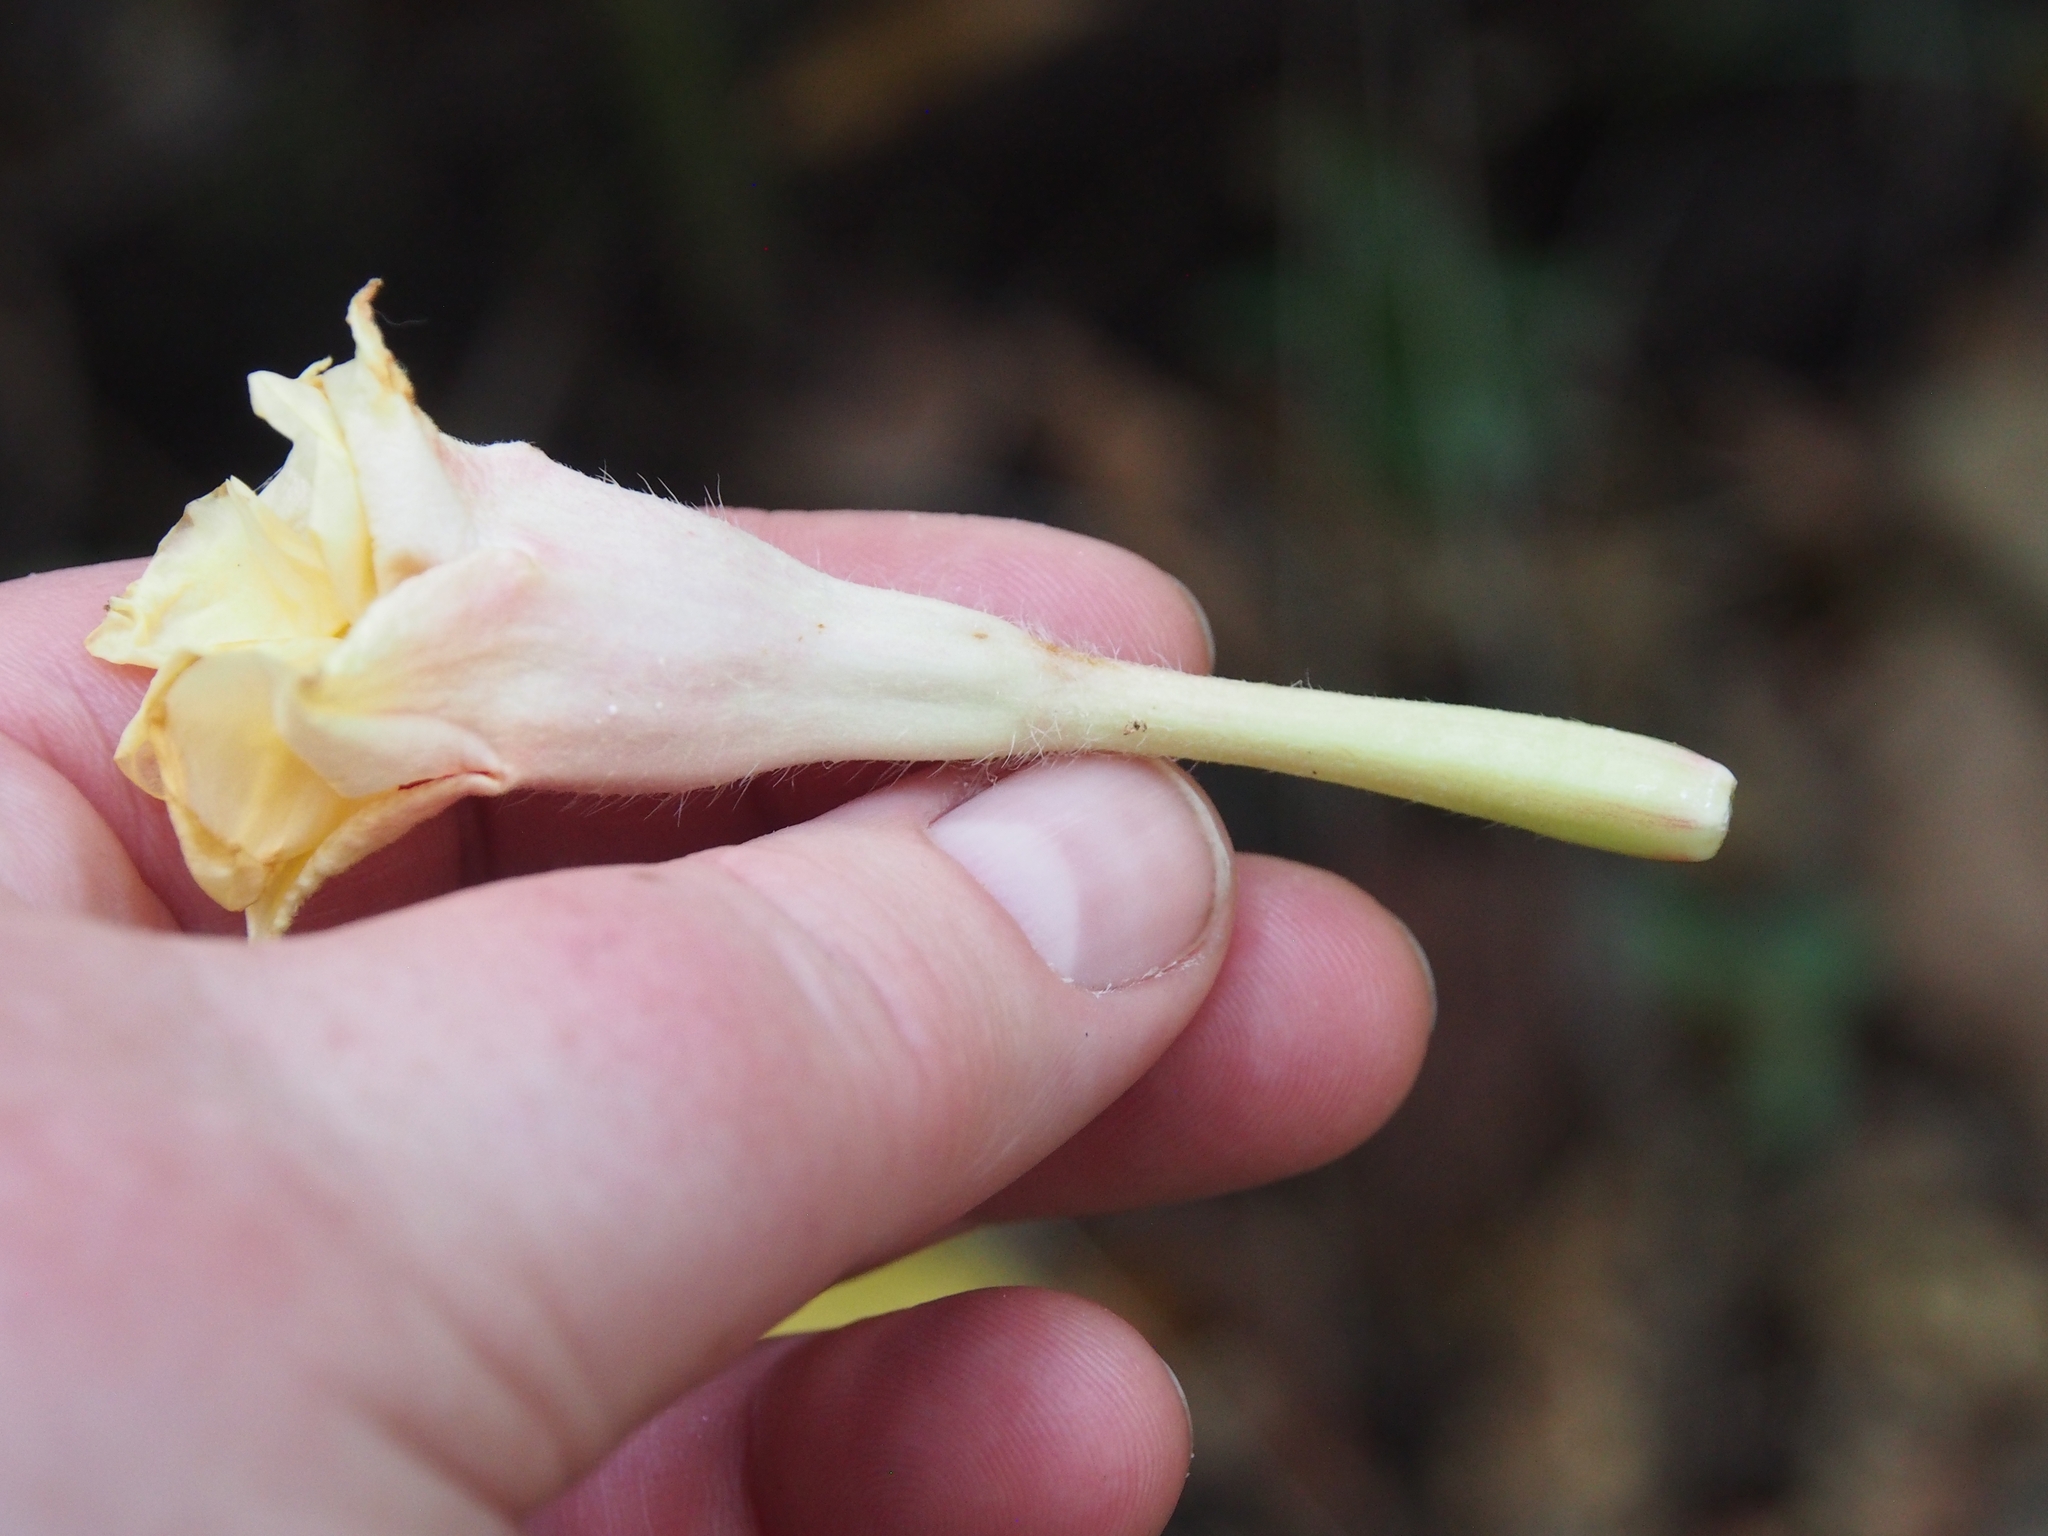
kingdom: Plantae
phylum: Tracheophyta
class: Magnoliopsida
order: Gentianales
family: Apocynaceae
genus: Mandevilla
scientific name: Mandevilla hirsuta
